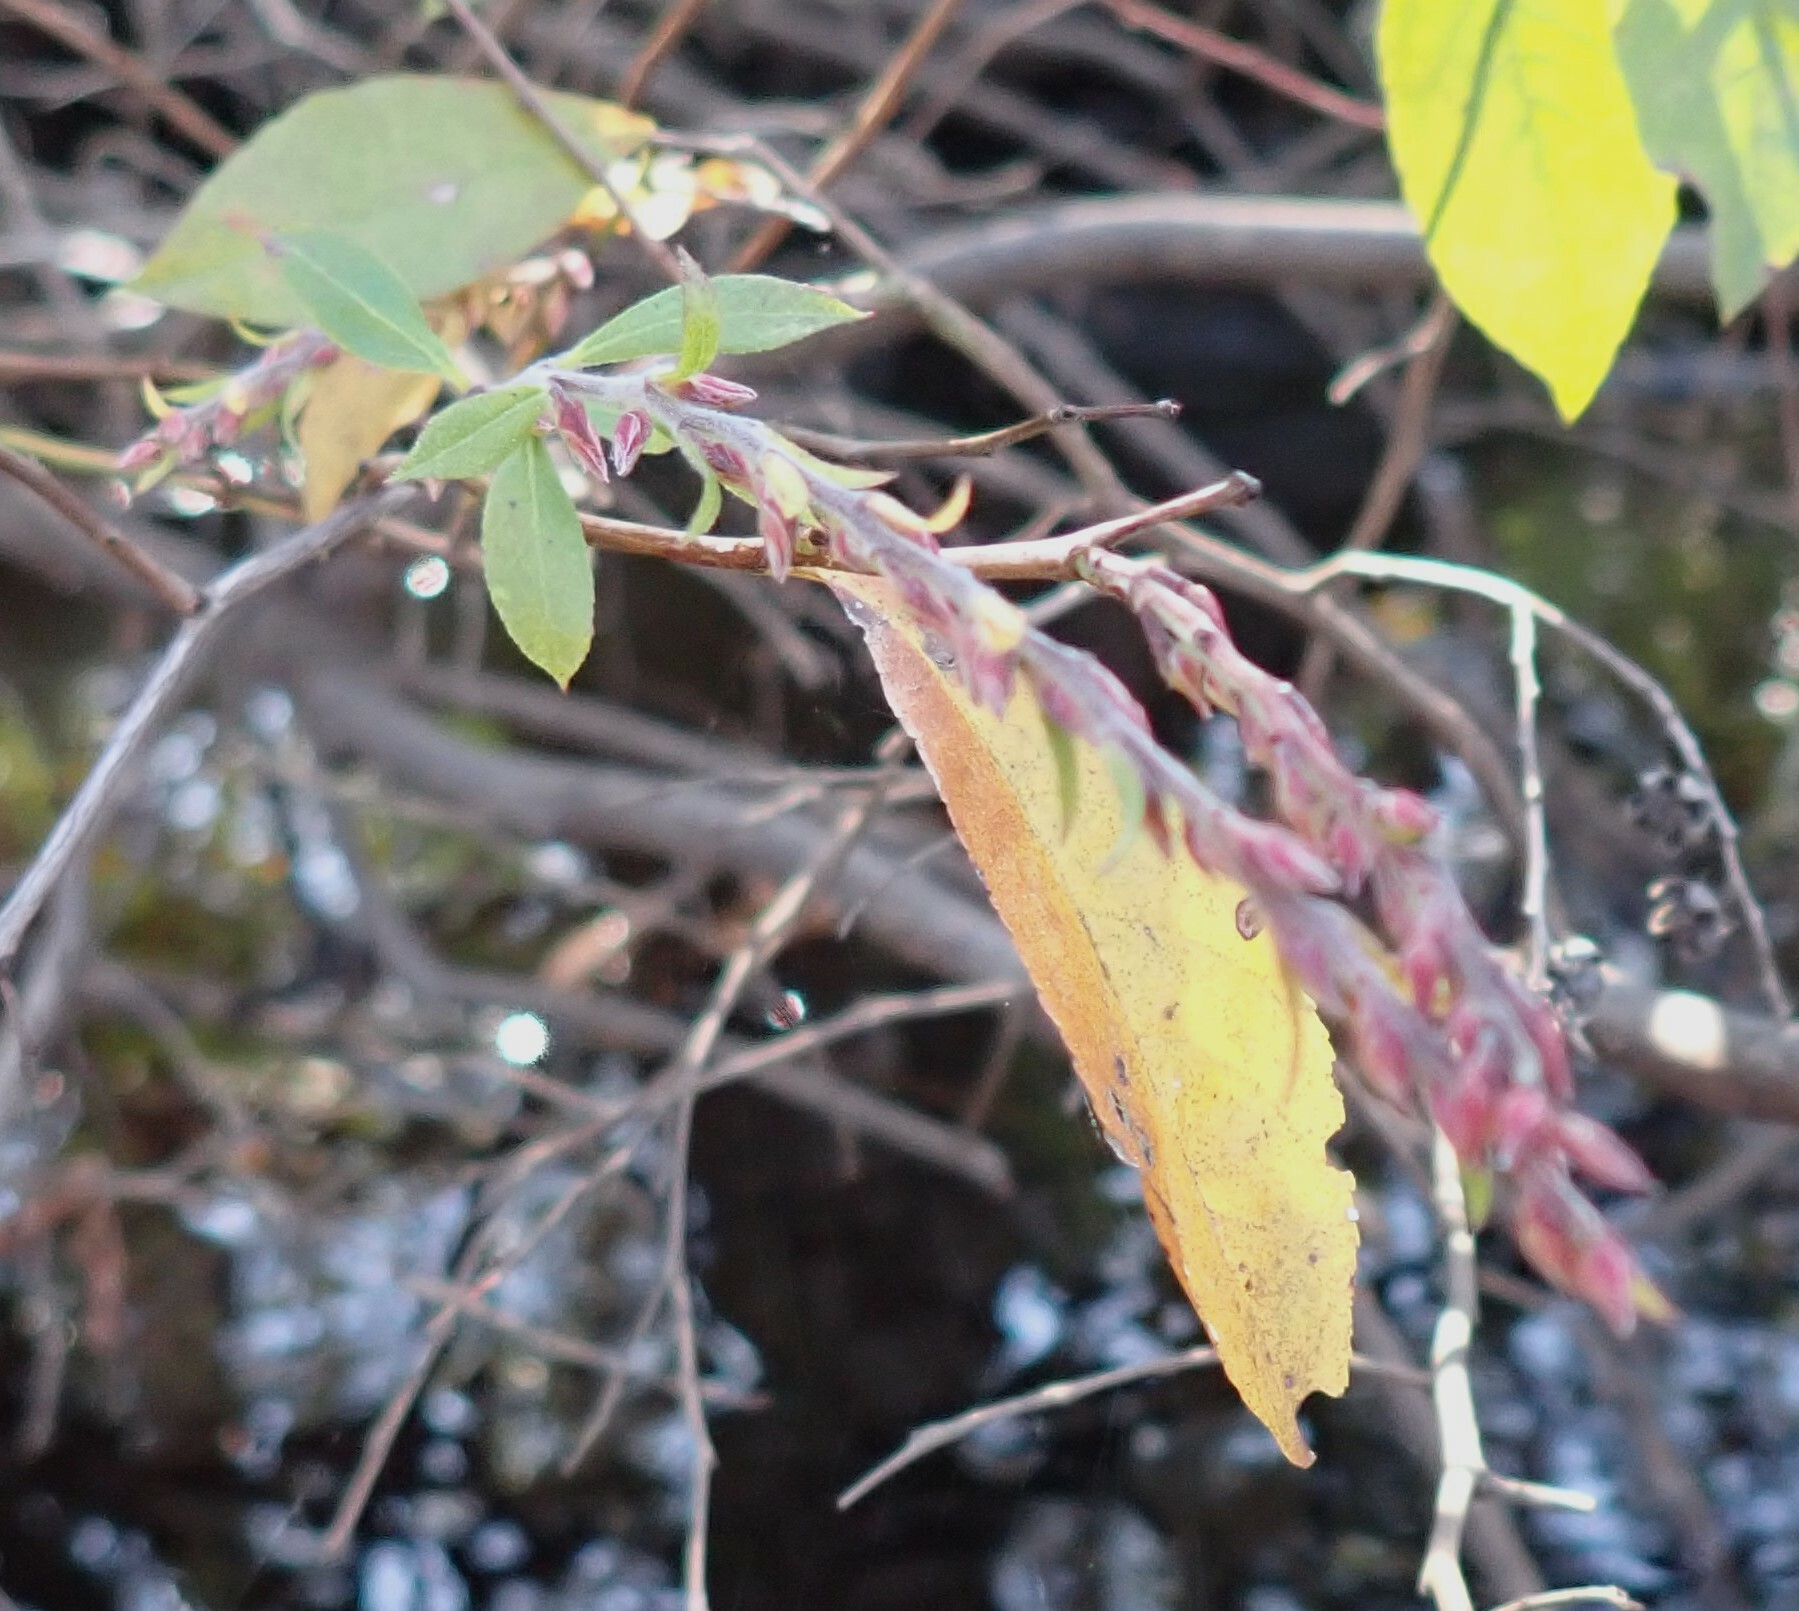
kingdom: Plantae
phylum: Tracheophyta
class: Magnoliopsida
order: Ericales
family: Ericaceae
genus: Eubotrys
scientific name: Eubotrys racemosa
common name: Fetterbush
